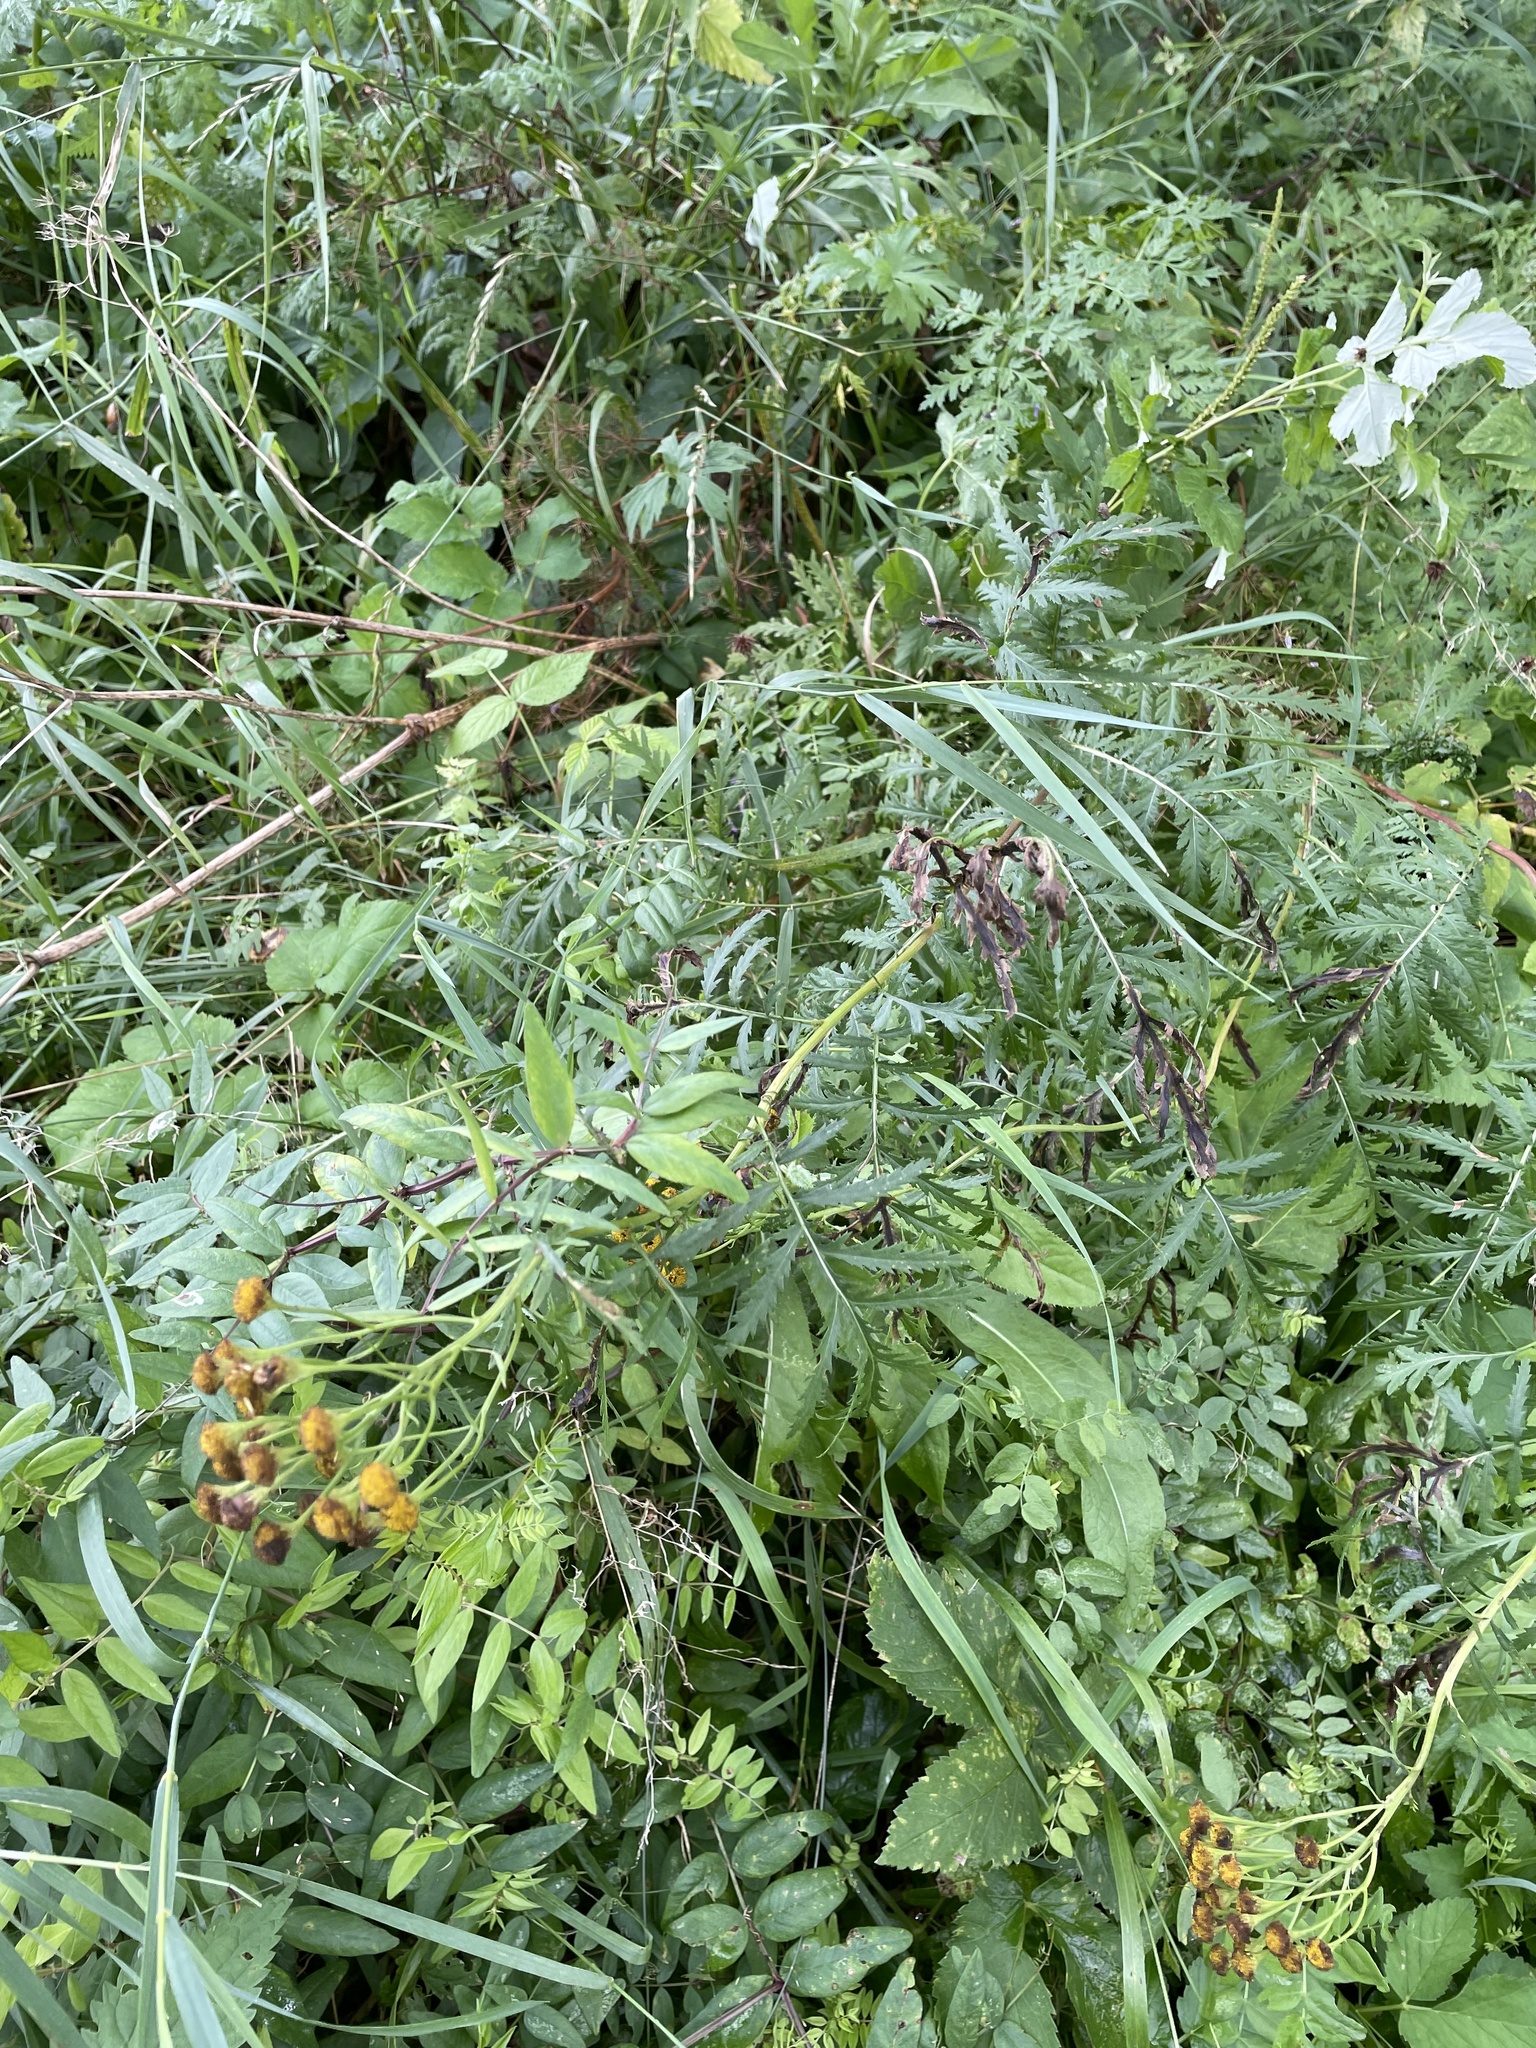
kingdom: Plantae
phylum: Tracheophyta
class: Magnoliopsida
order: Asterales
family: Asteraceae
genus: Tanacetum
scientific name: Tanacetum vulgare
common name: Common tansy
